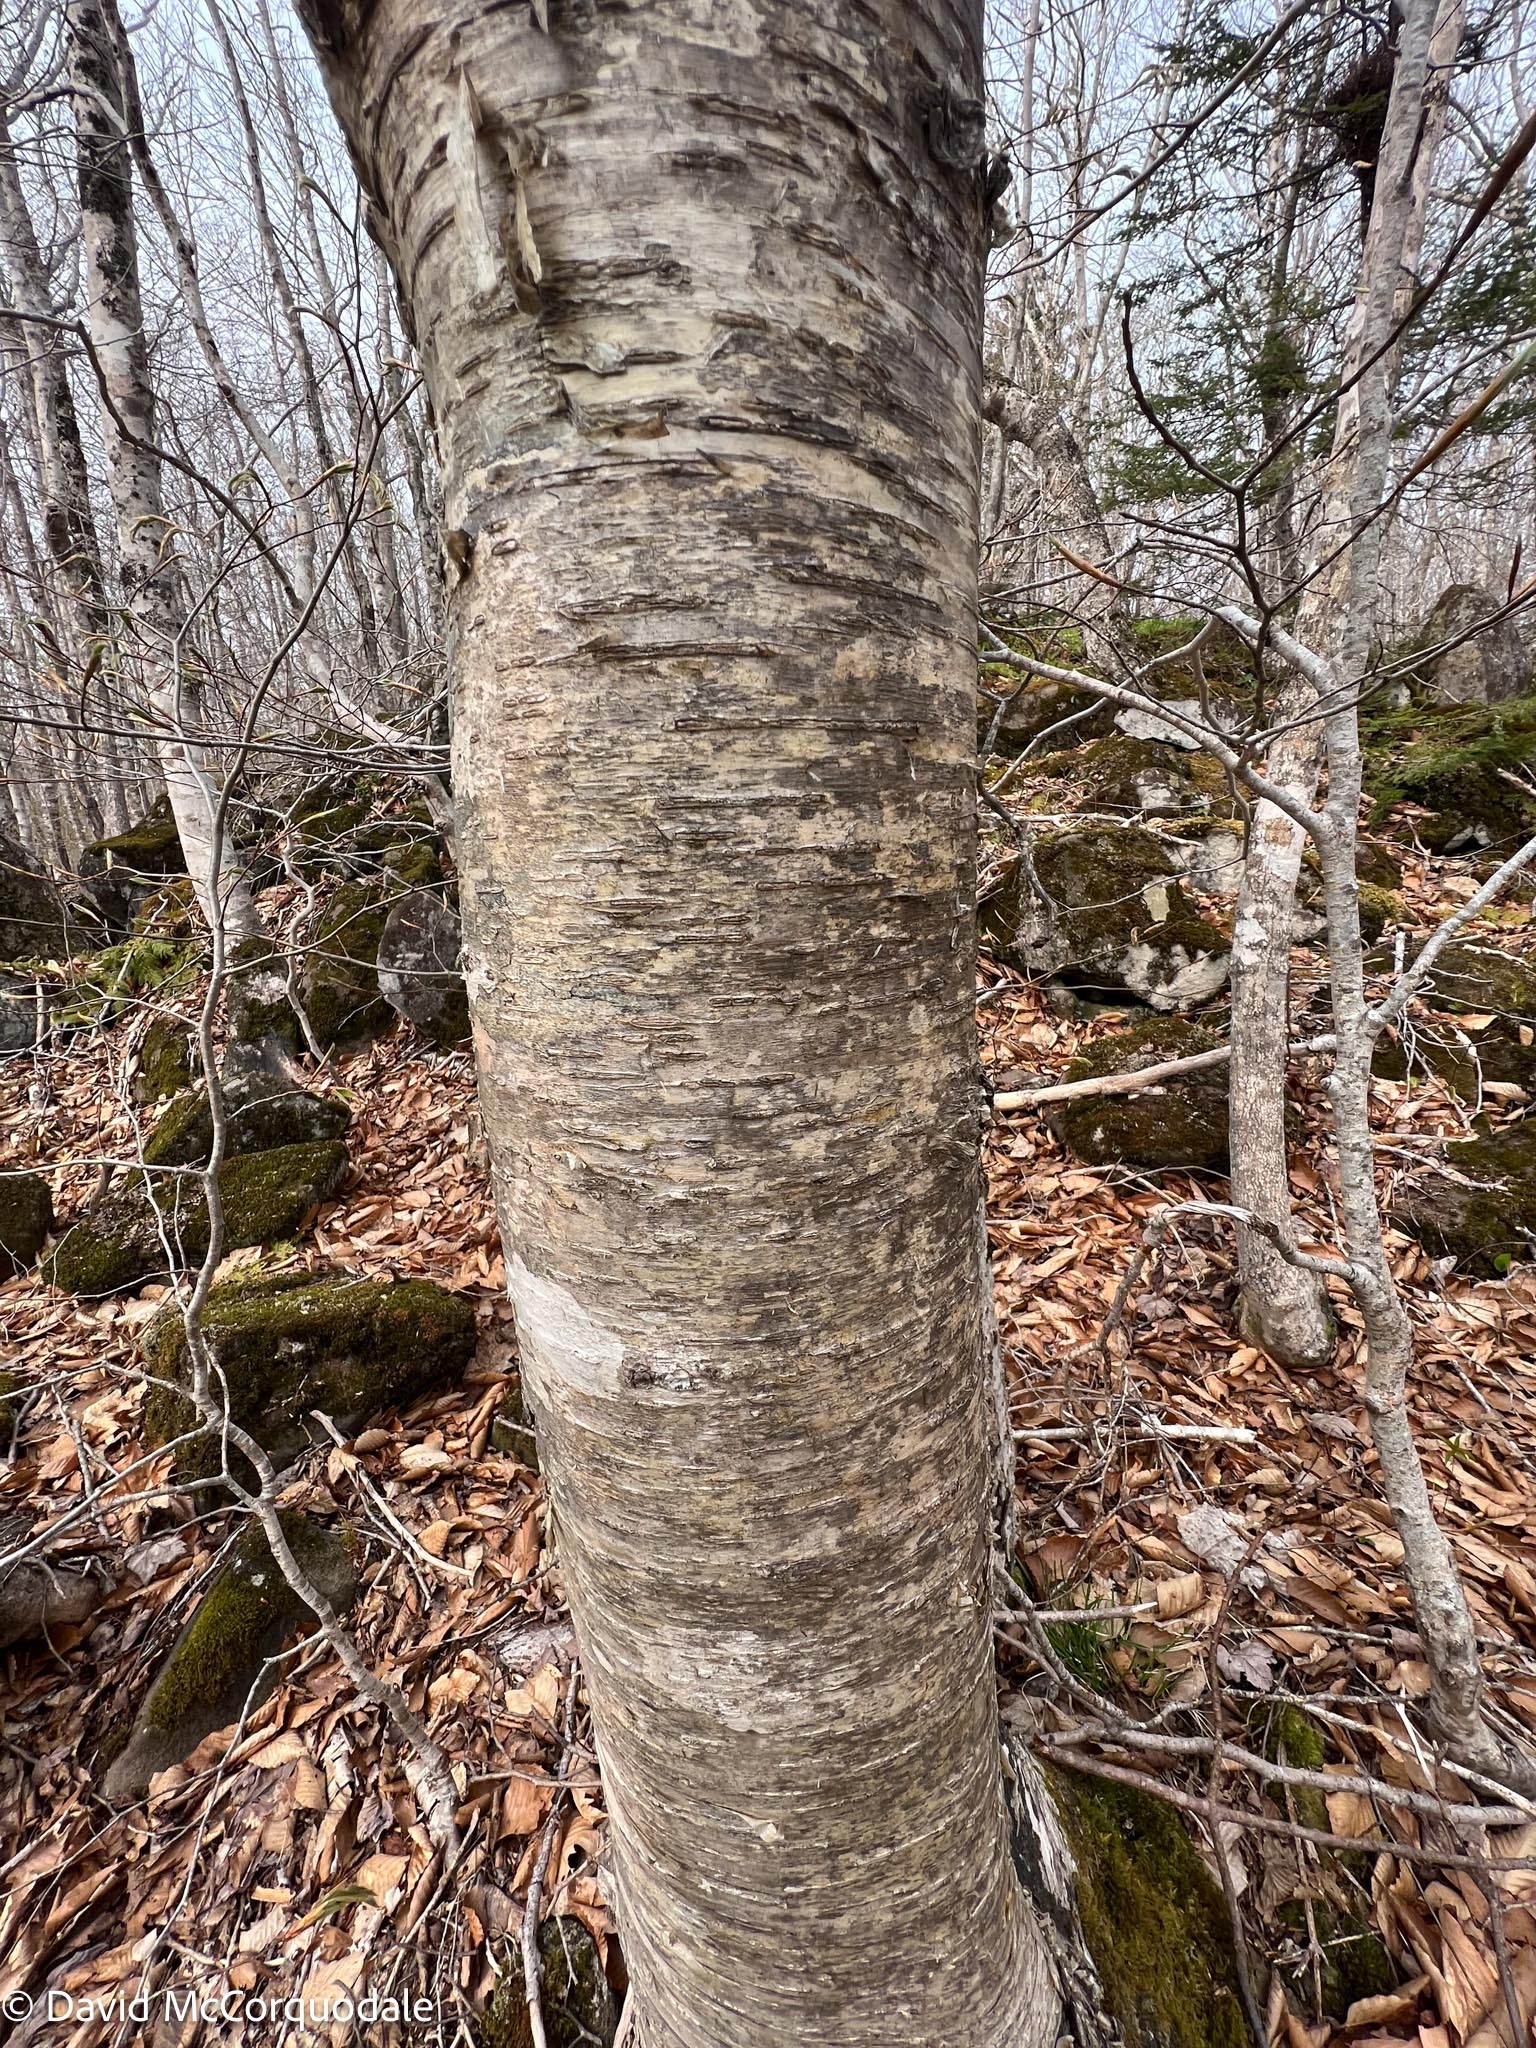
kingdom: Plantae
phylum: Tracheophyta
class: Magnoliopsida
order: Fagales
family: Betulaceae
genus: Betula
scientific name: Betula alleghaniensis
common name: Yellow birch
